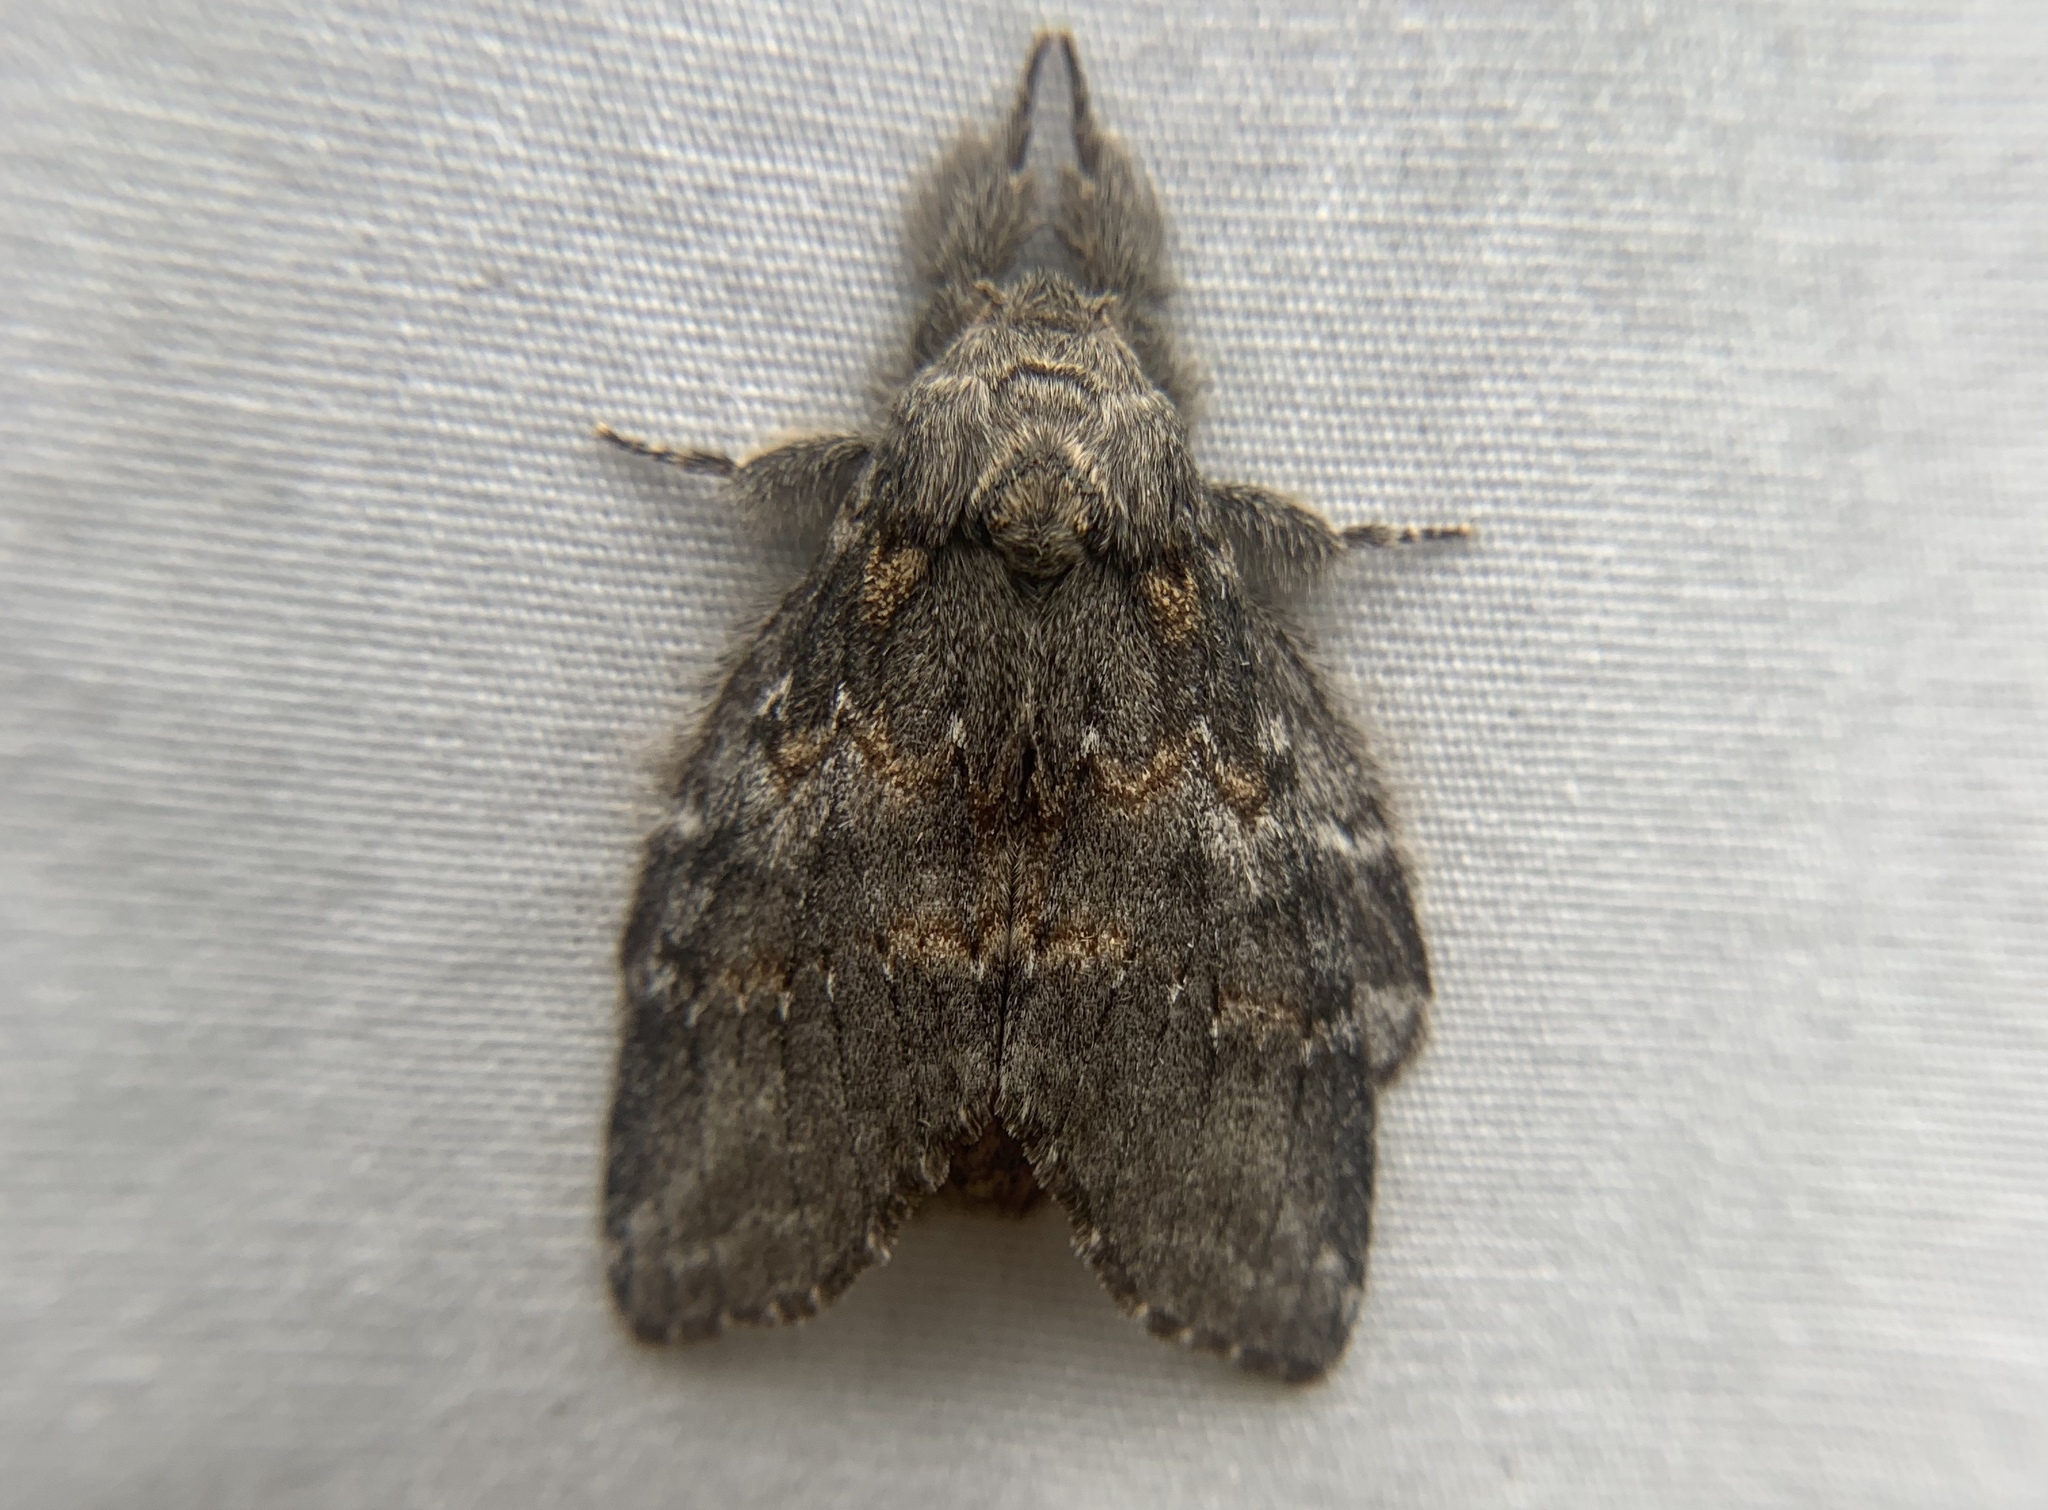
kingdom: Animalia
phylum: Arthropoda
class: Insecta
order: Lepidoptera
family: Notodontidae
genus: Peridea
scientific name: Peridea angulosa
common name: Angulose prominent
